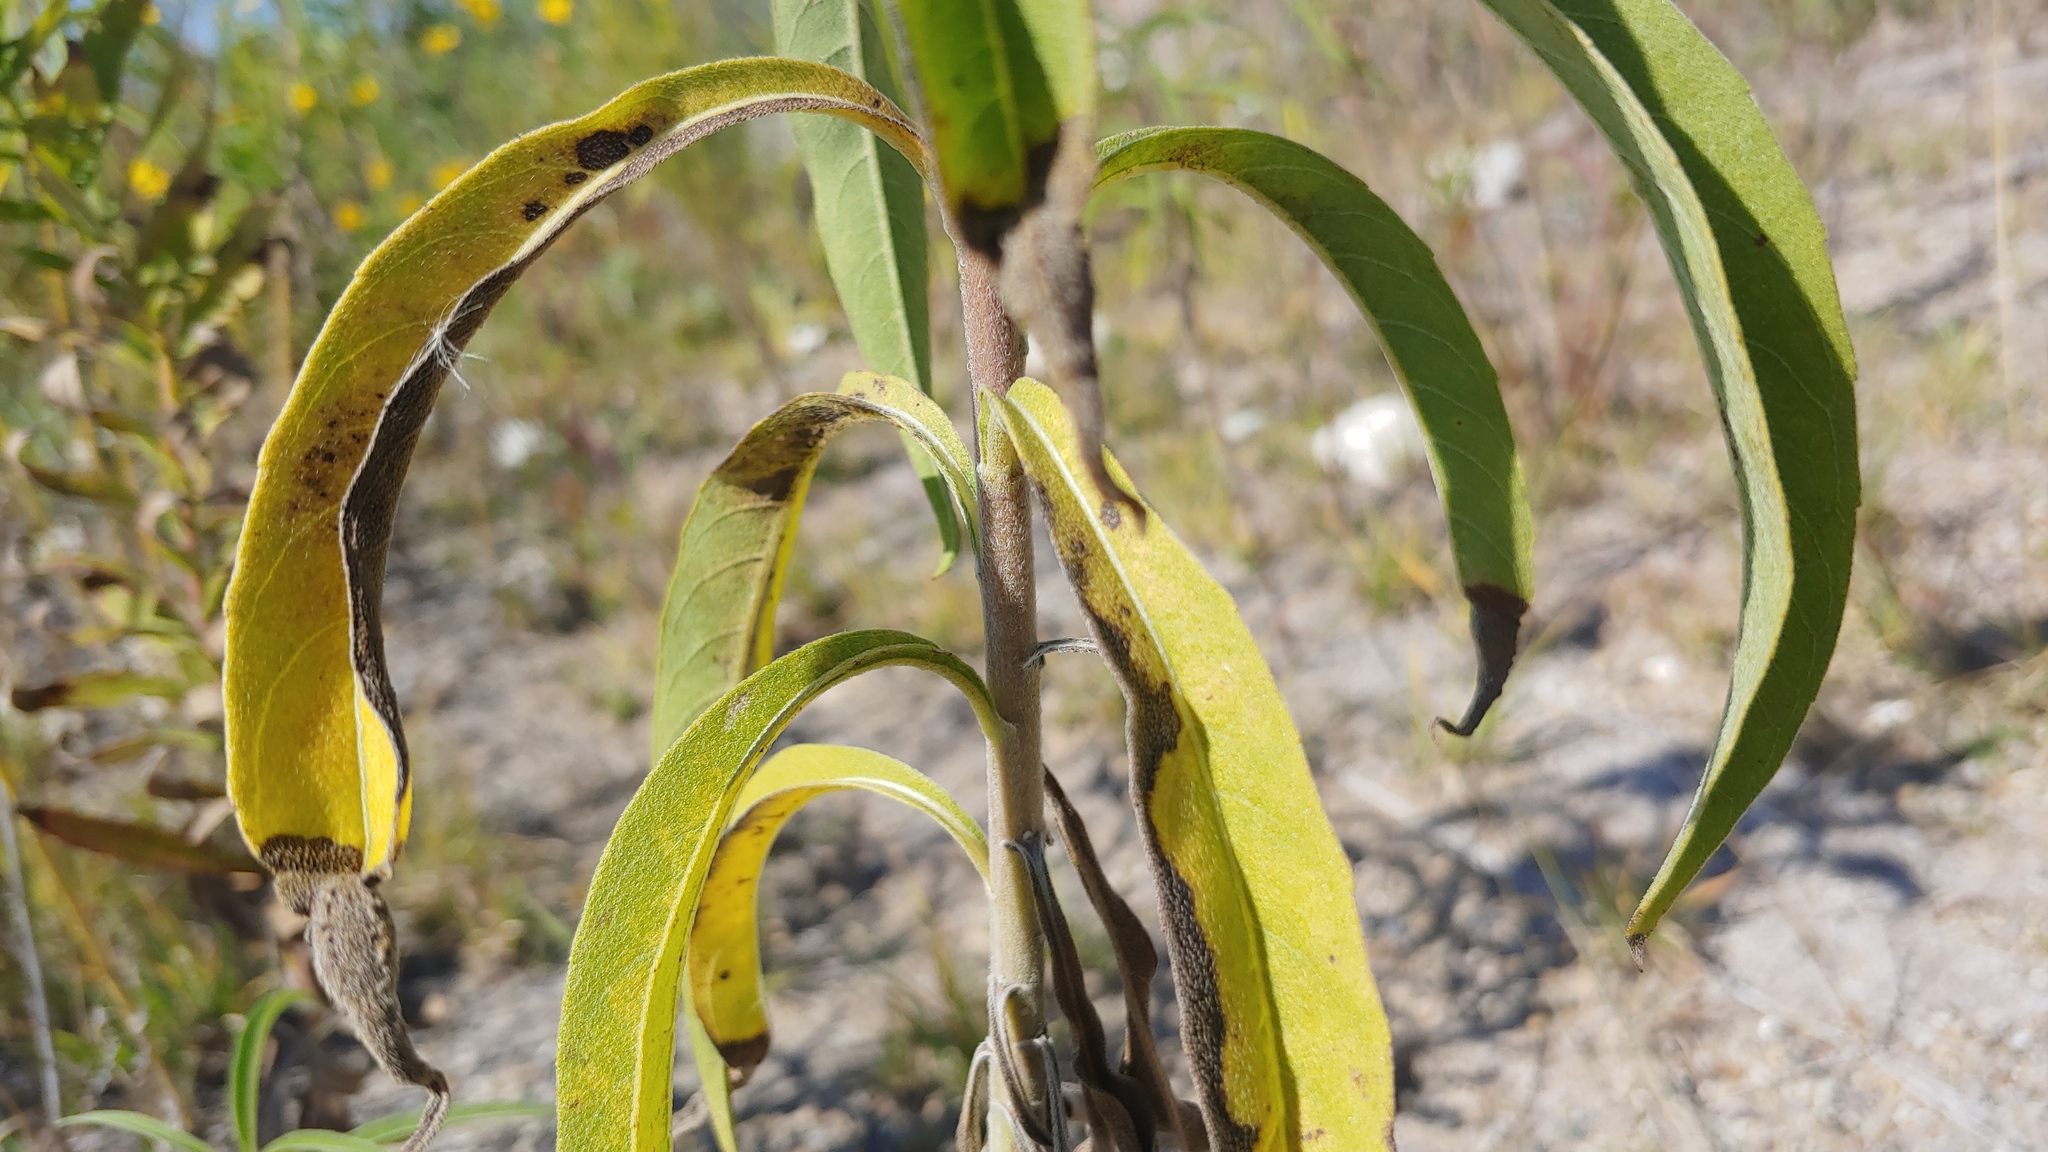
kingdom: Plantae
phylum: Tracheophyta
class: Magnoliopsida
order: Asterales
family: Asteraceae
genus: Helianthus
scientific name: Helianthus maximiliani
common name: Maximilian's sunflower
